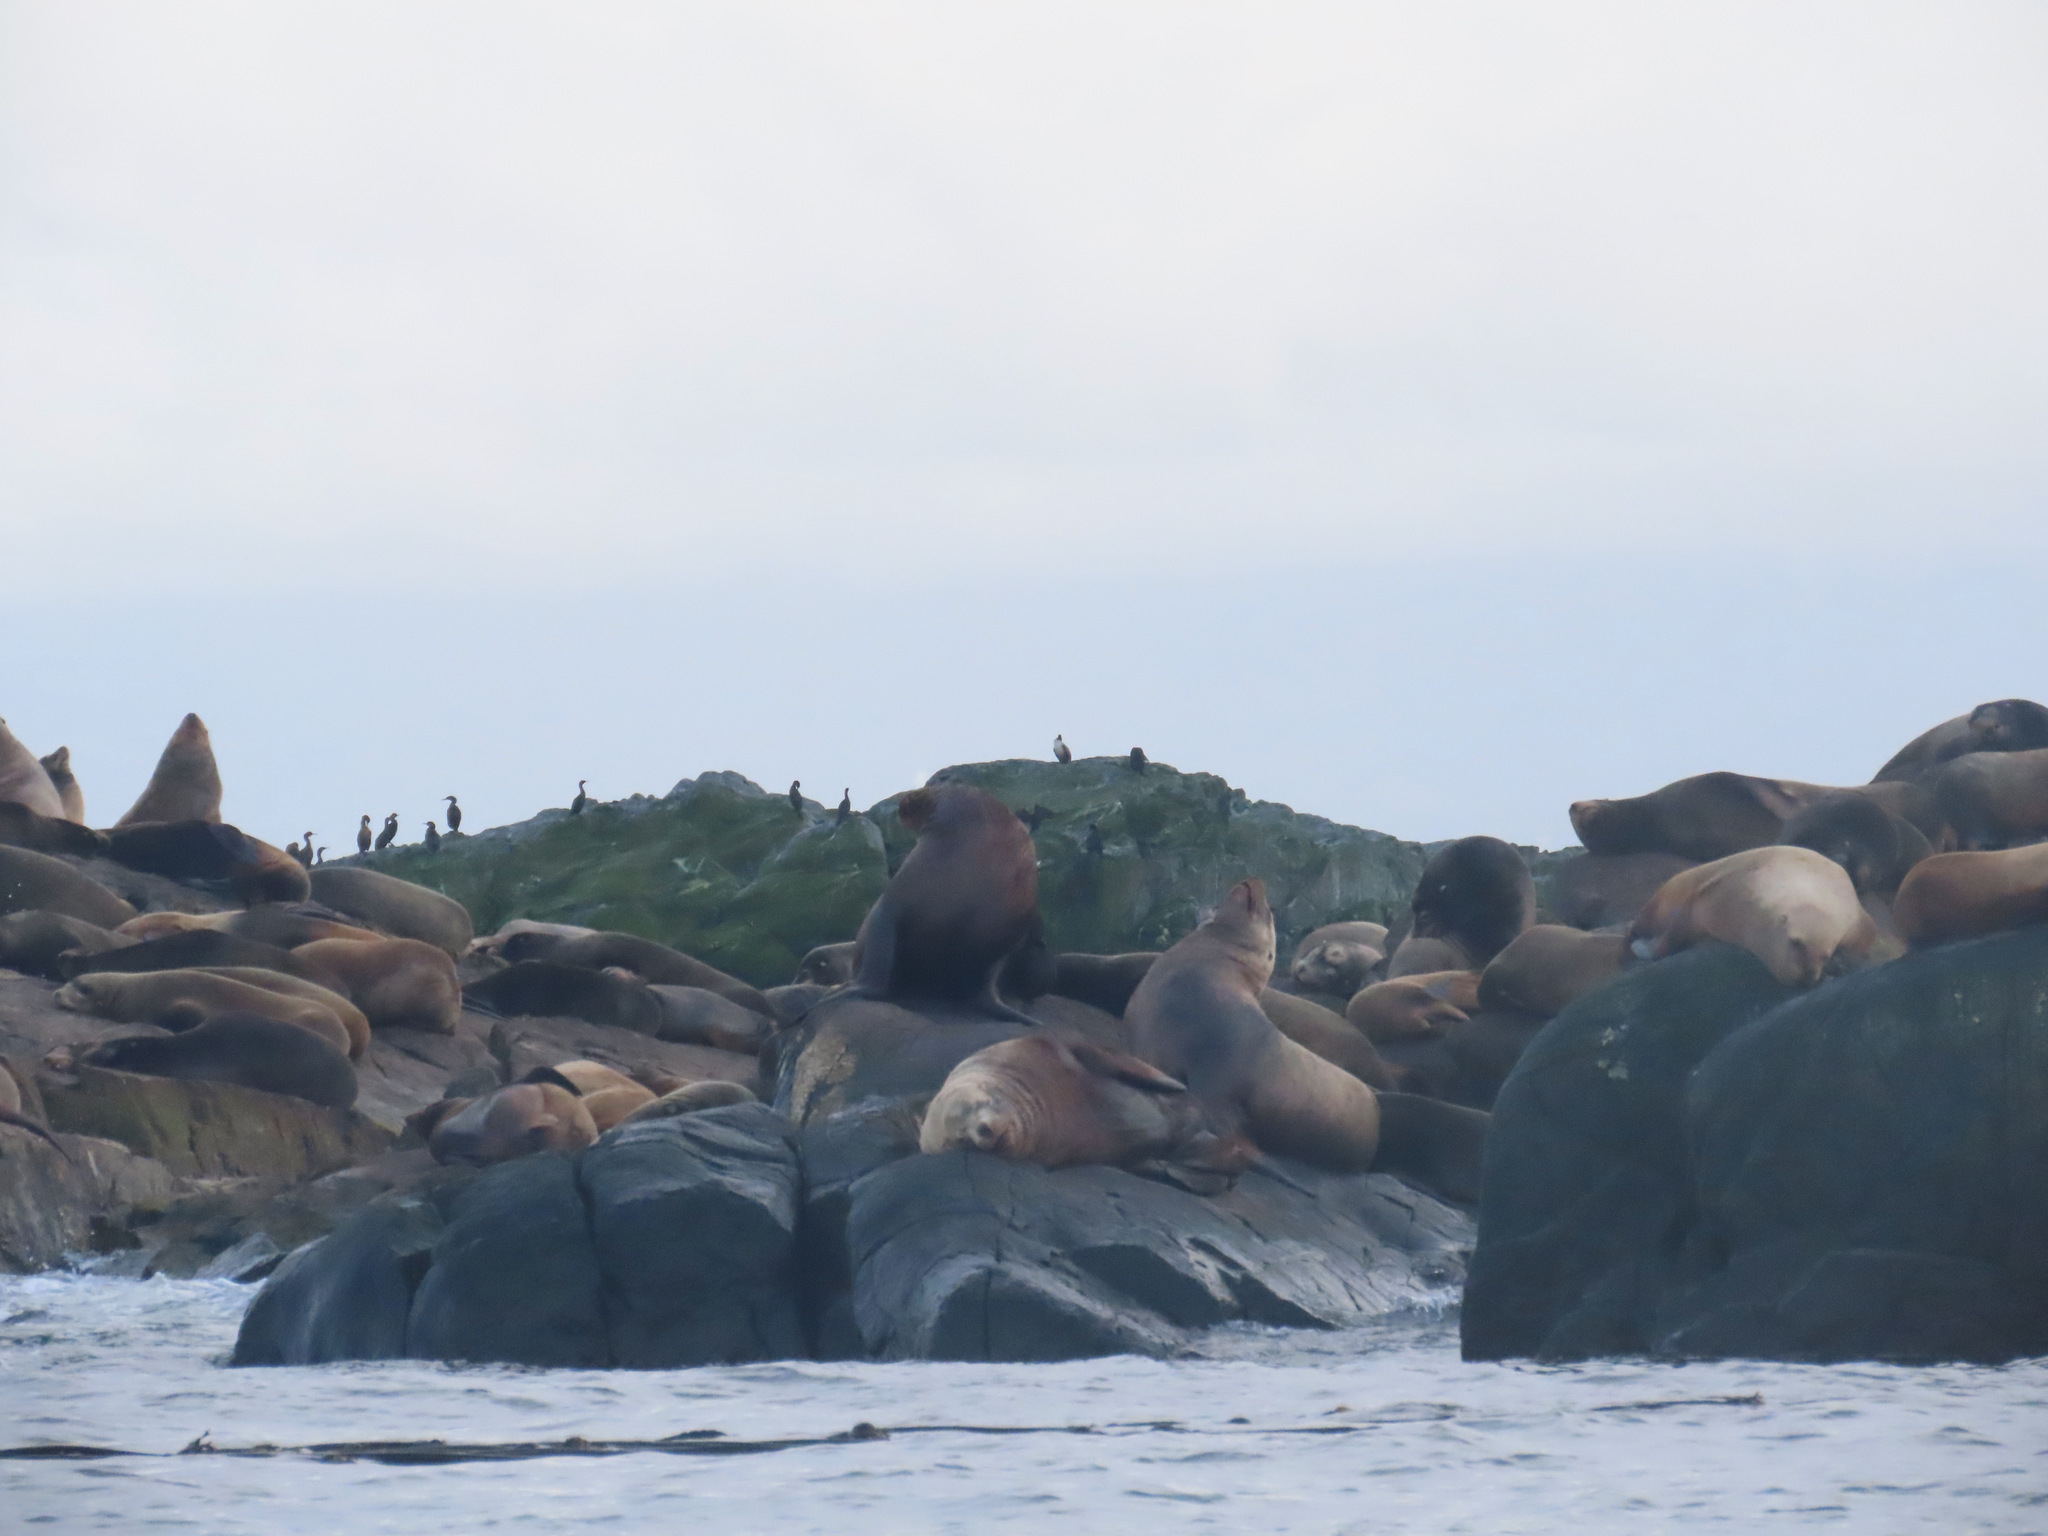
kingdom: Animalia
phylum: Chordata
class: Mammalia
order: Carnivora
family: Otariidae
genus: Eumetopias
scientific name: Eumetopias jubatus
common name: Steller sea lion
